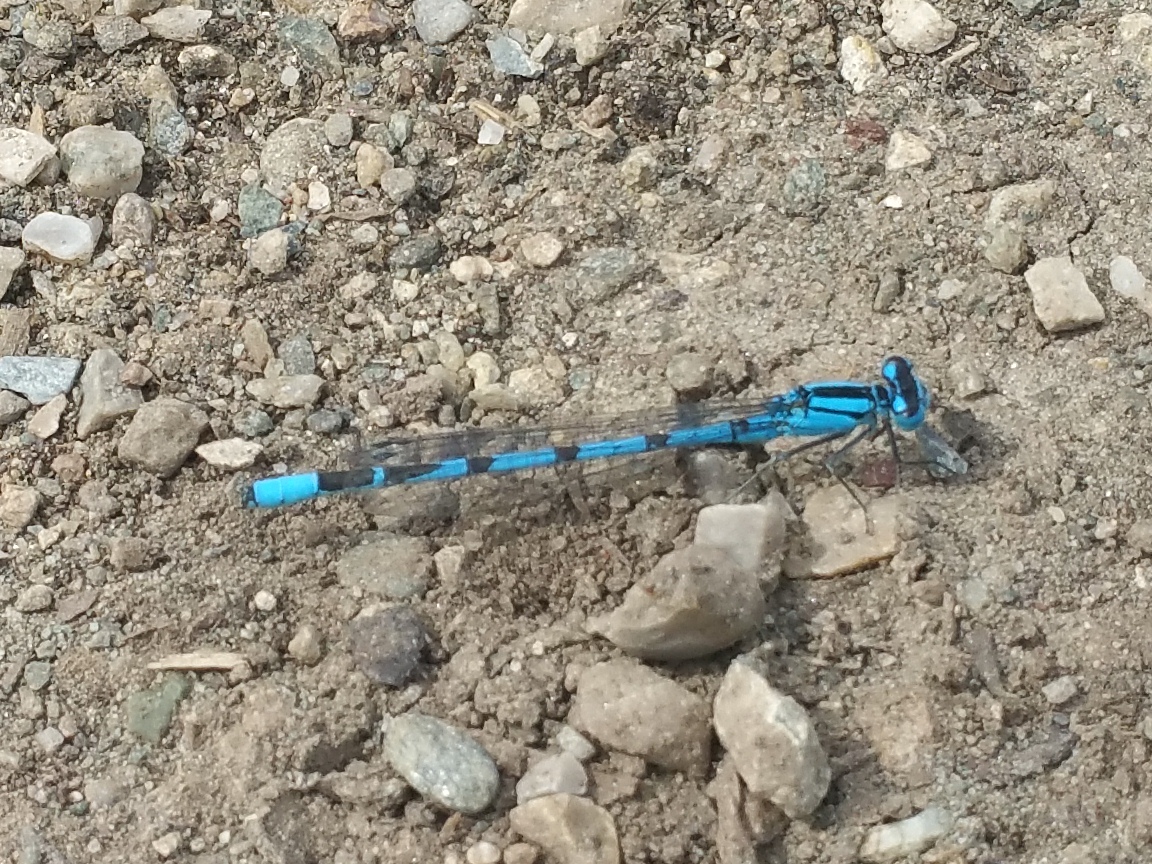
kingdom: Animalia
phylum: Arthropoda
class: Insecta
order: Odonata
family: Coenagrionidae
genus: Enallagma
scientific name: Enallagma cyathigerum
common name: Common blue damselfly
